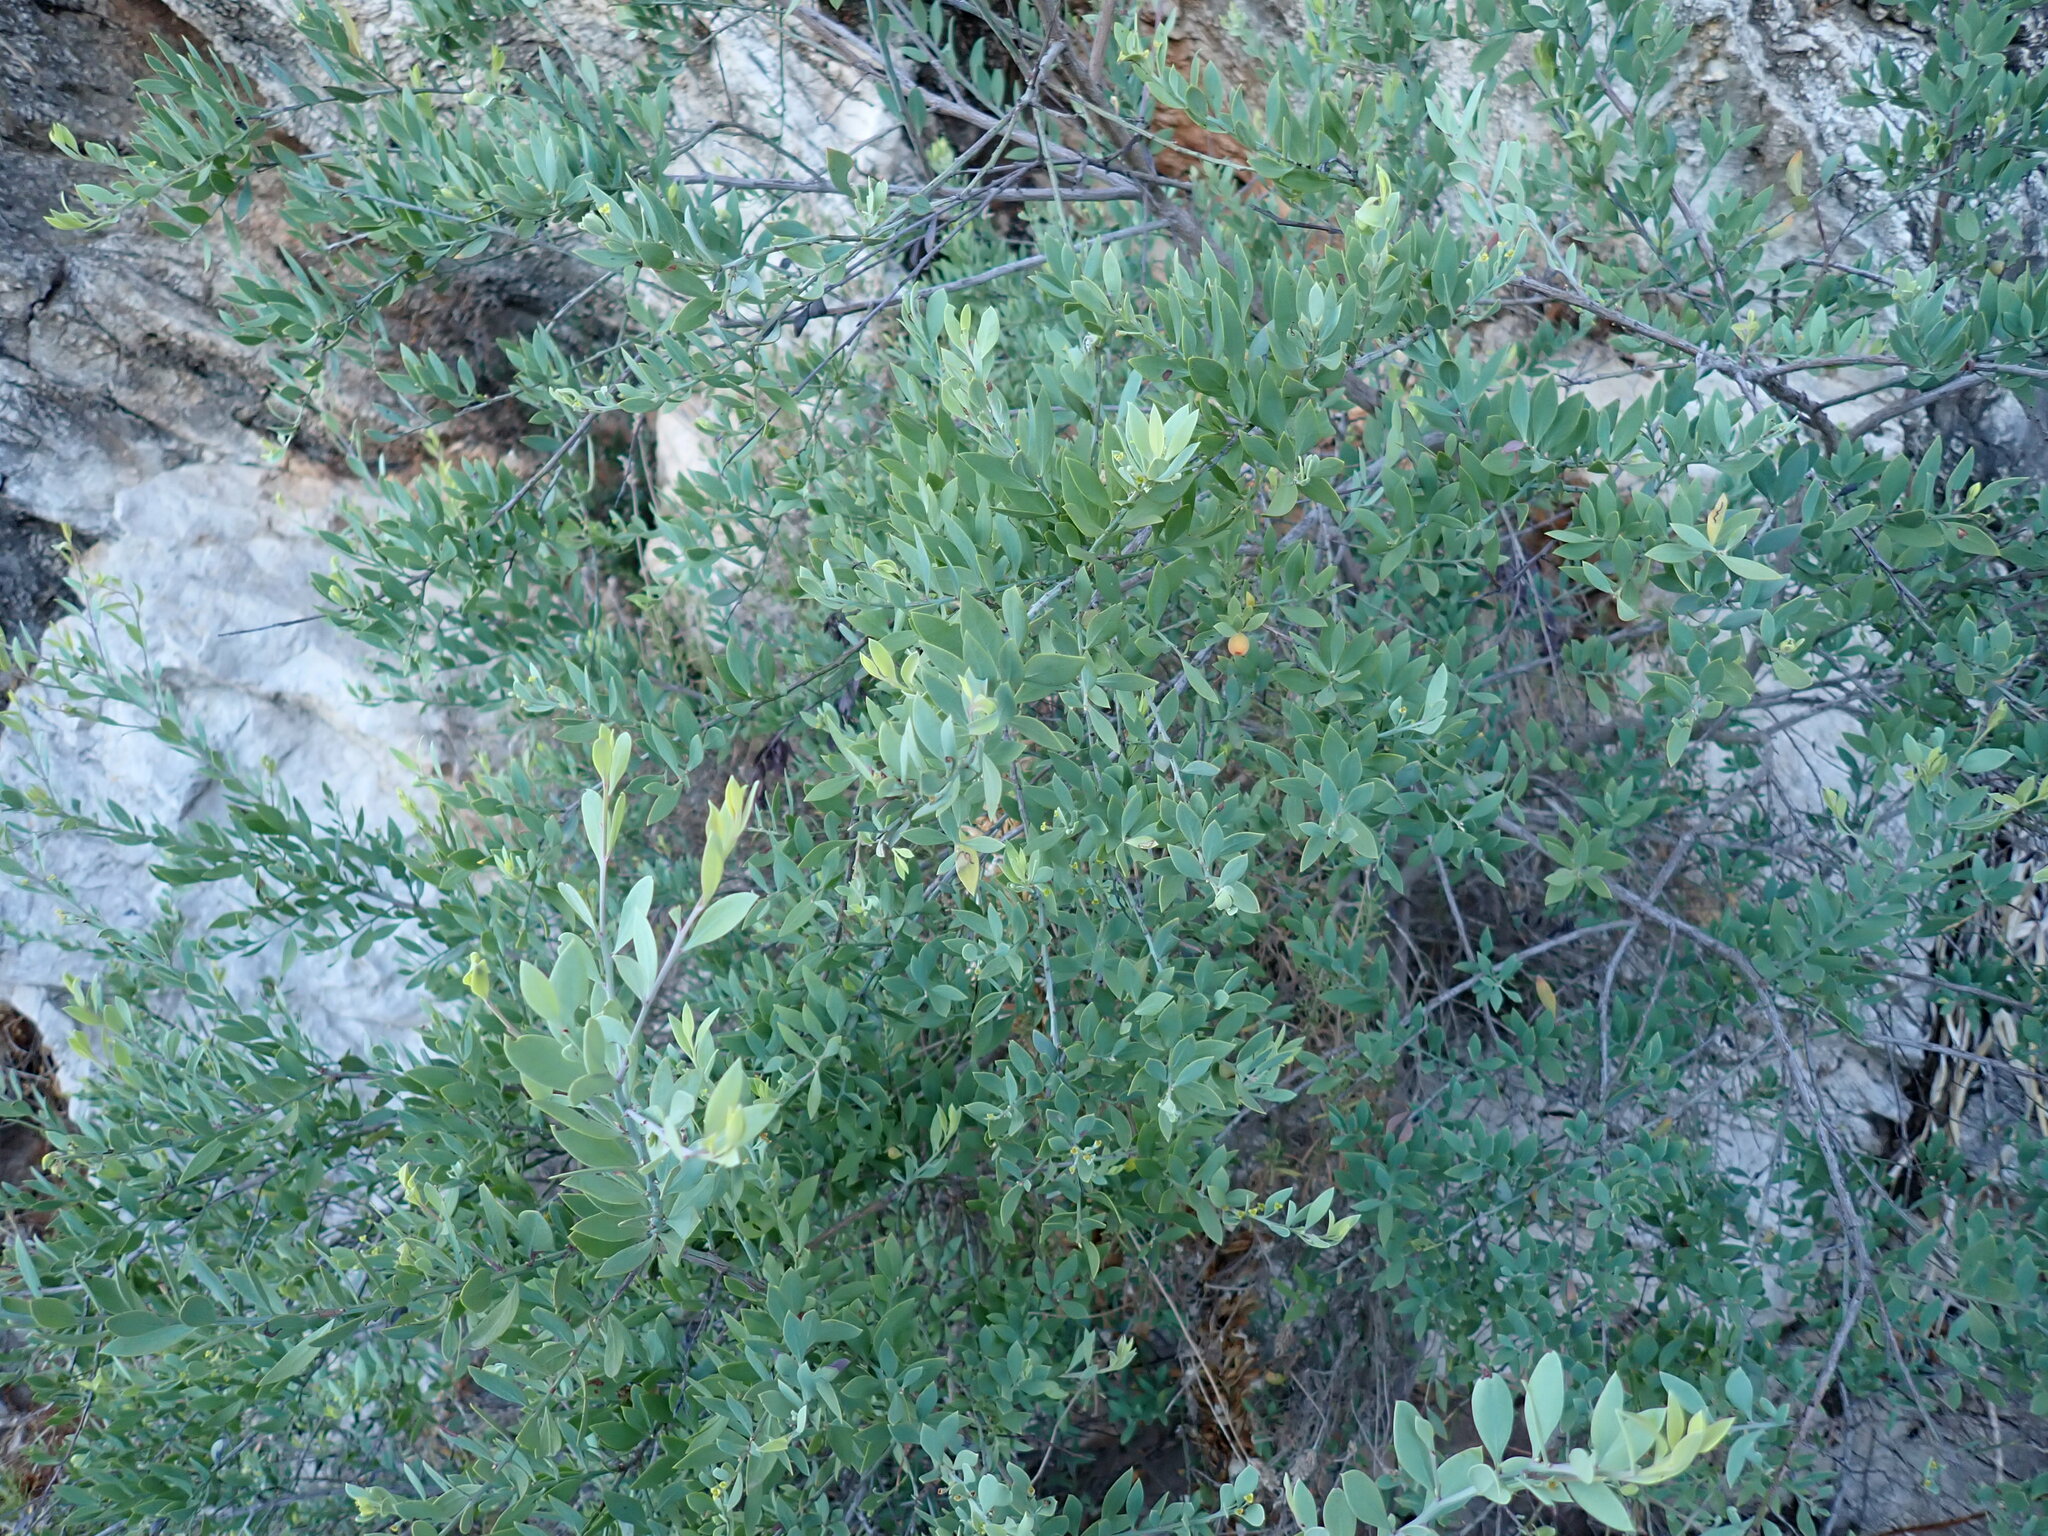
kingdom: Plantae
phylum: Tracheophyta
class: Magnoliopsida
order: Santalales
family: Santalaceae
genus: Osyris
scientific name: Osyris lanceolata
